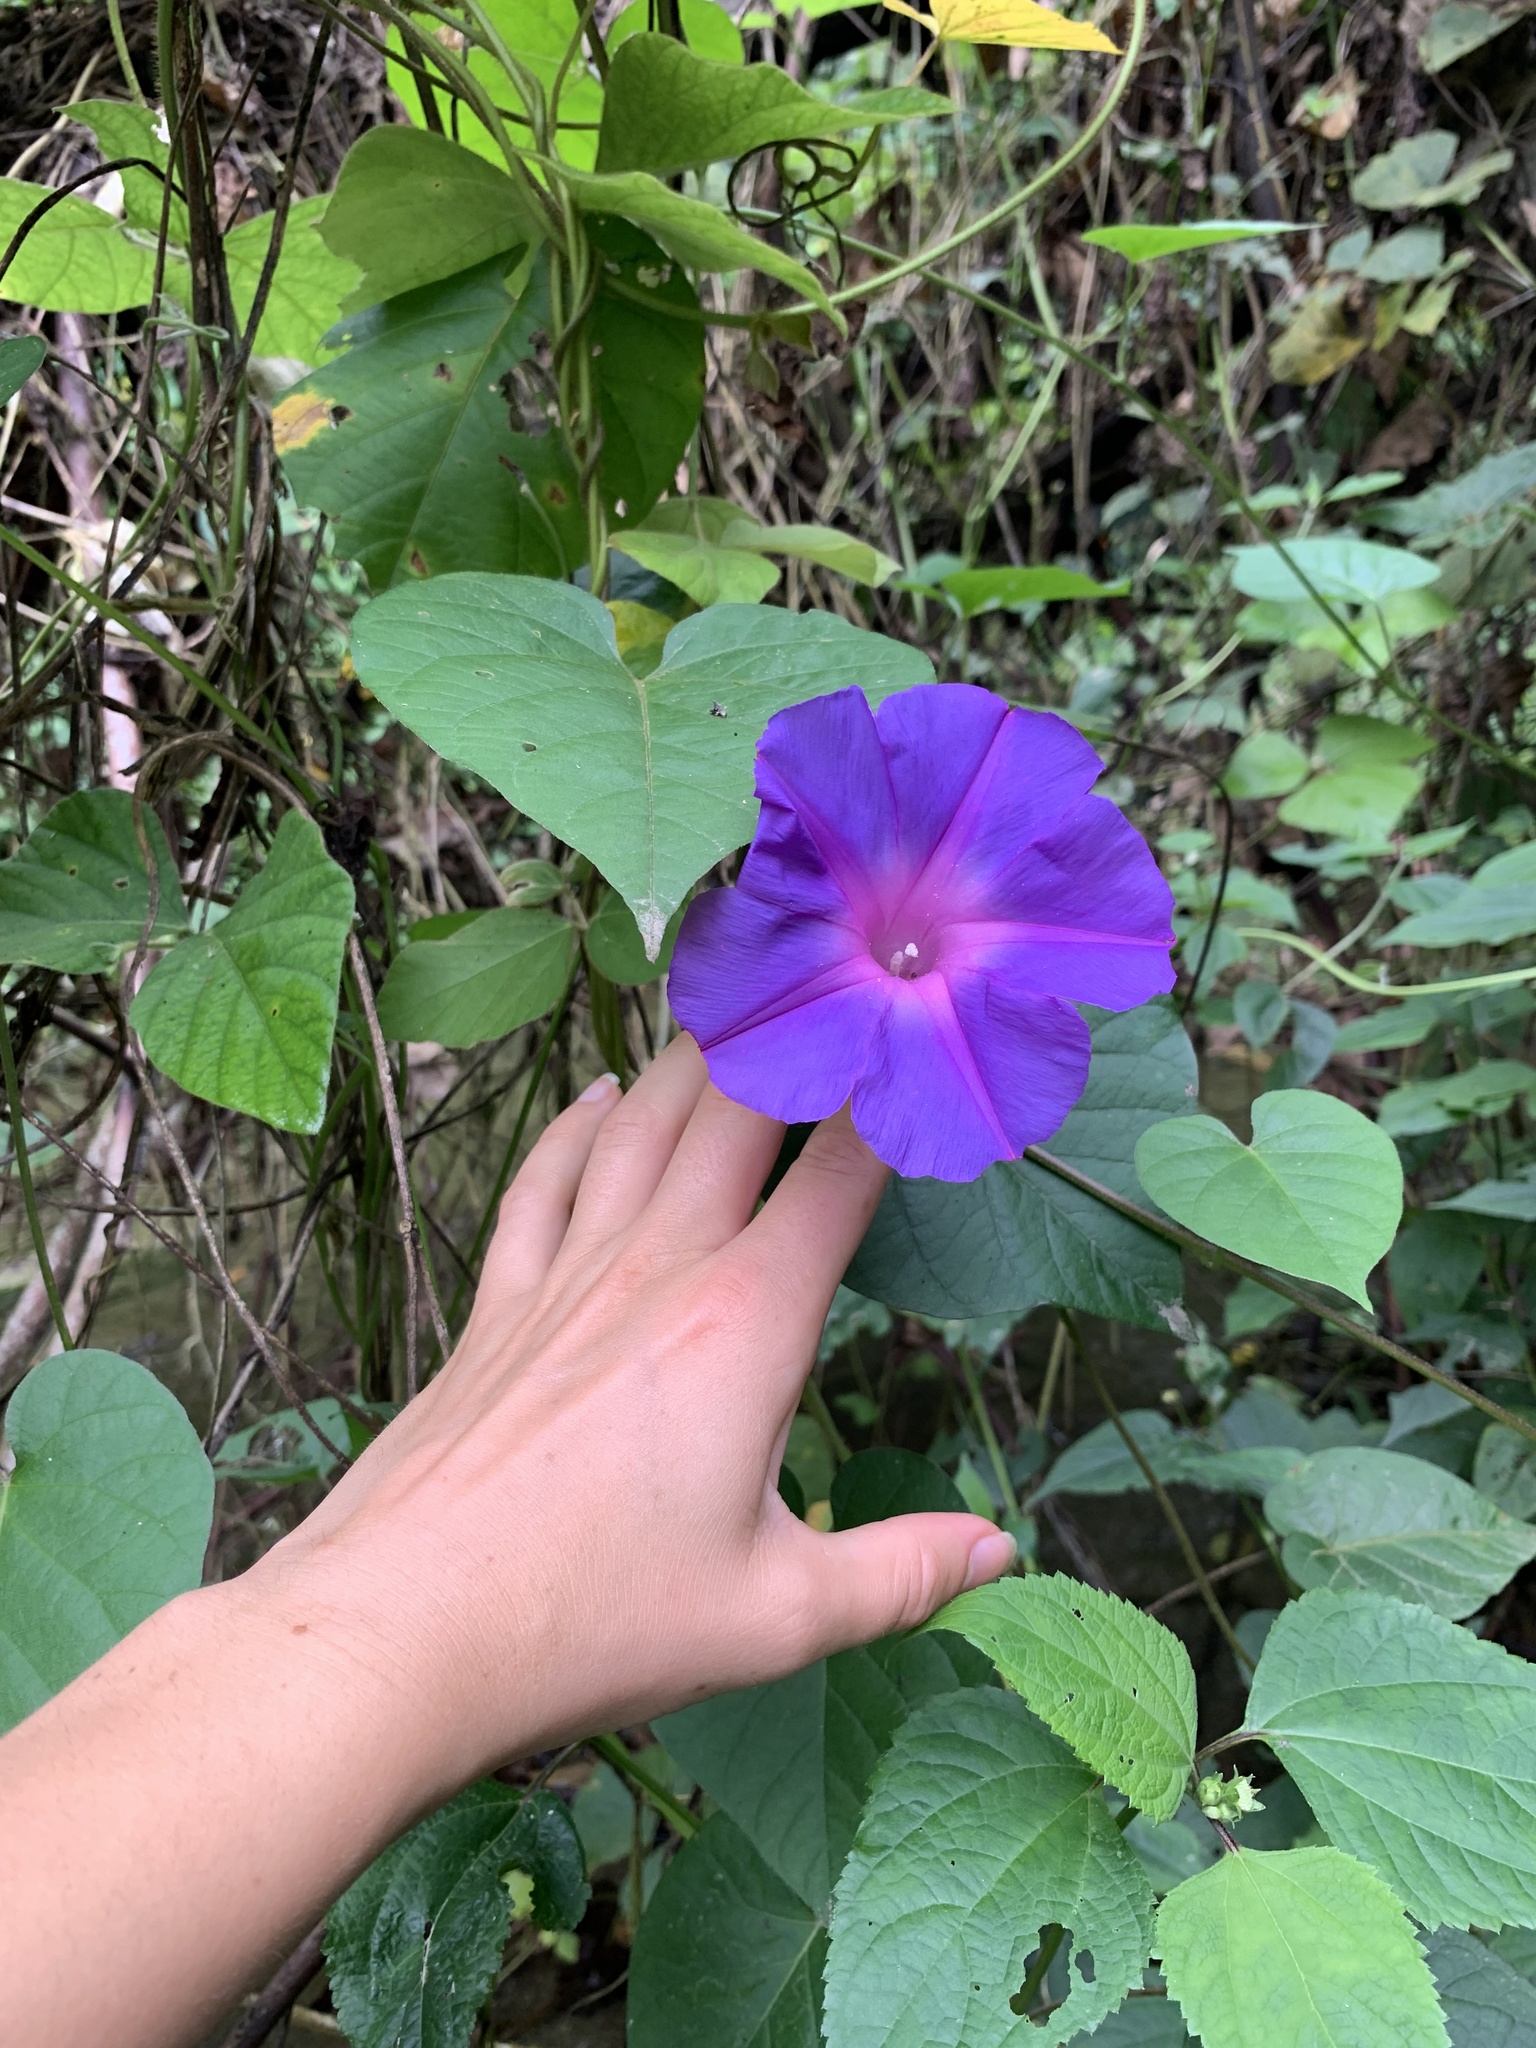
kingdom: Plantae
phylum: Tracheophyta
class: Magnoliopsida
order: Solanales
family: Convolvulaceae
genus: Ipomoea
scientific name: Ipomoea indica
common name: Blue dawnflower
